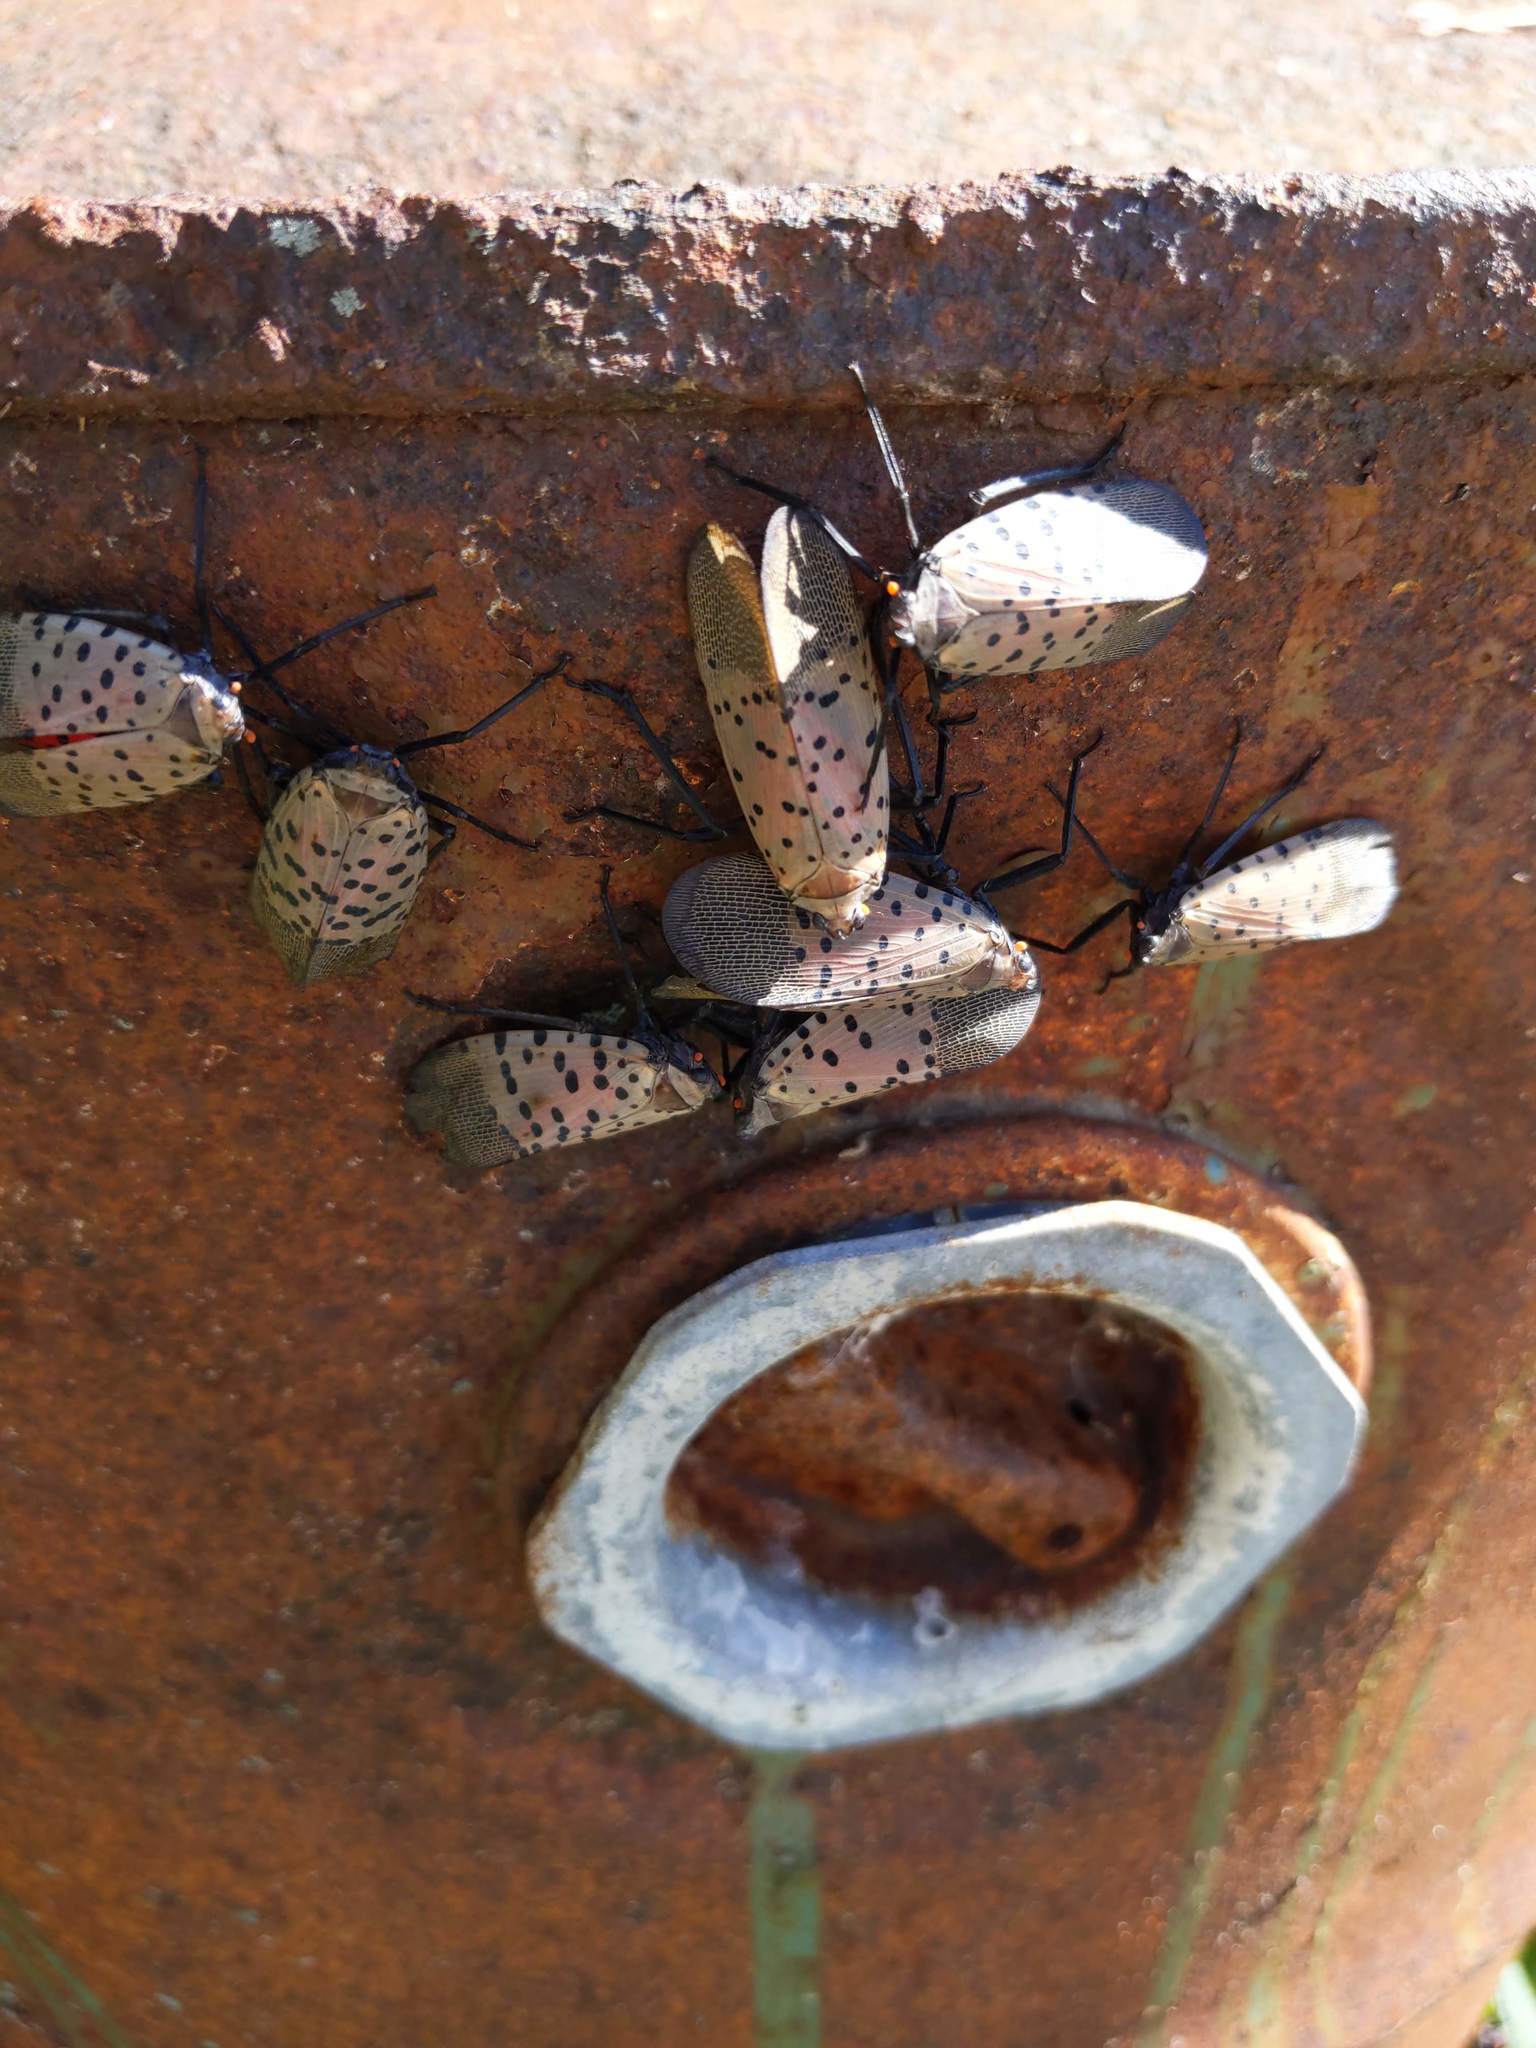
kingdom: Animalia
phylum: Arthropoda
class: Insecta
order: Hemiptera
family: Fulgoridae
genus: Lycorma
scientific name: Lycorma delicatula
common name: Spotted lanternfly
